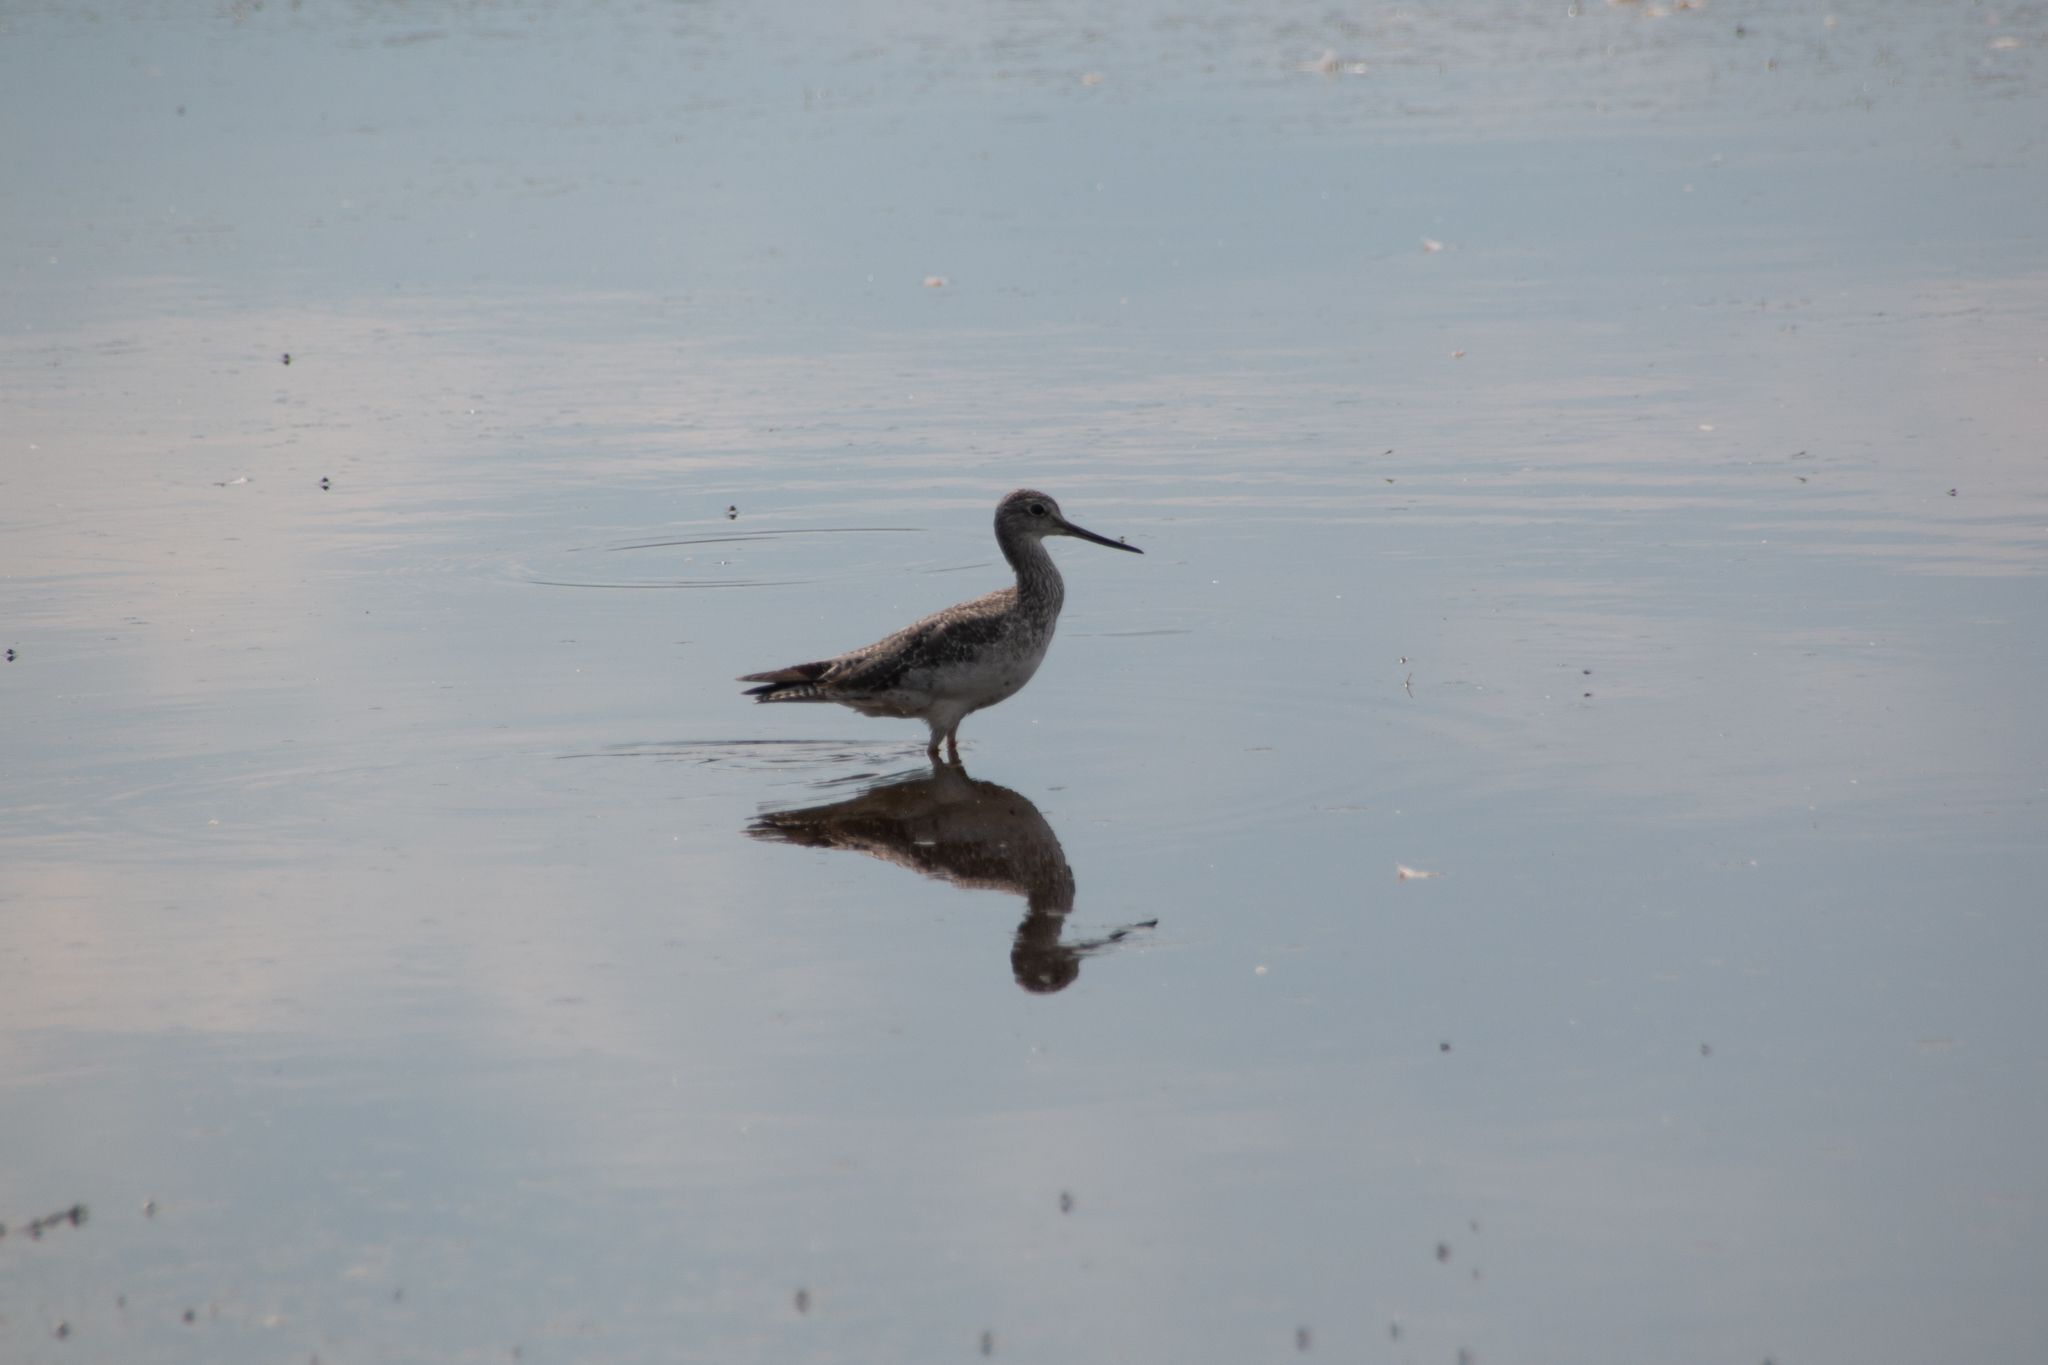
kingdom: Animalia
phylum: Chordata
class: Aves
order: Charadriiformes
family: Scolopacidae
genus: Tringa
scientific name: Tringa melanoleuca
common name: Greater yellowlegs
